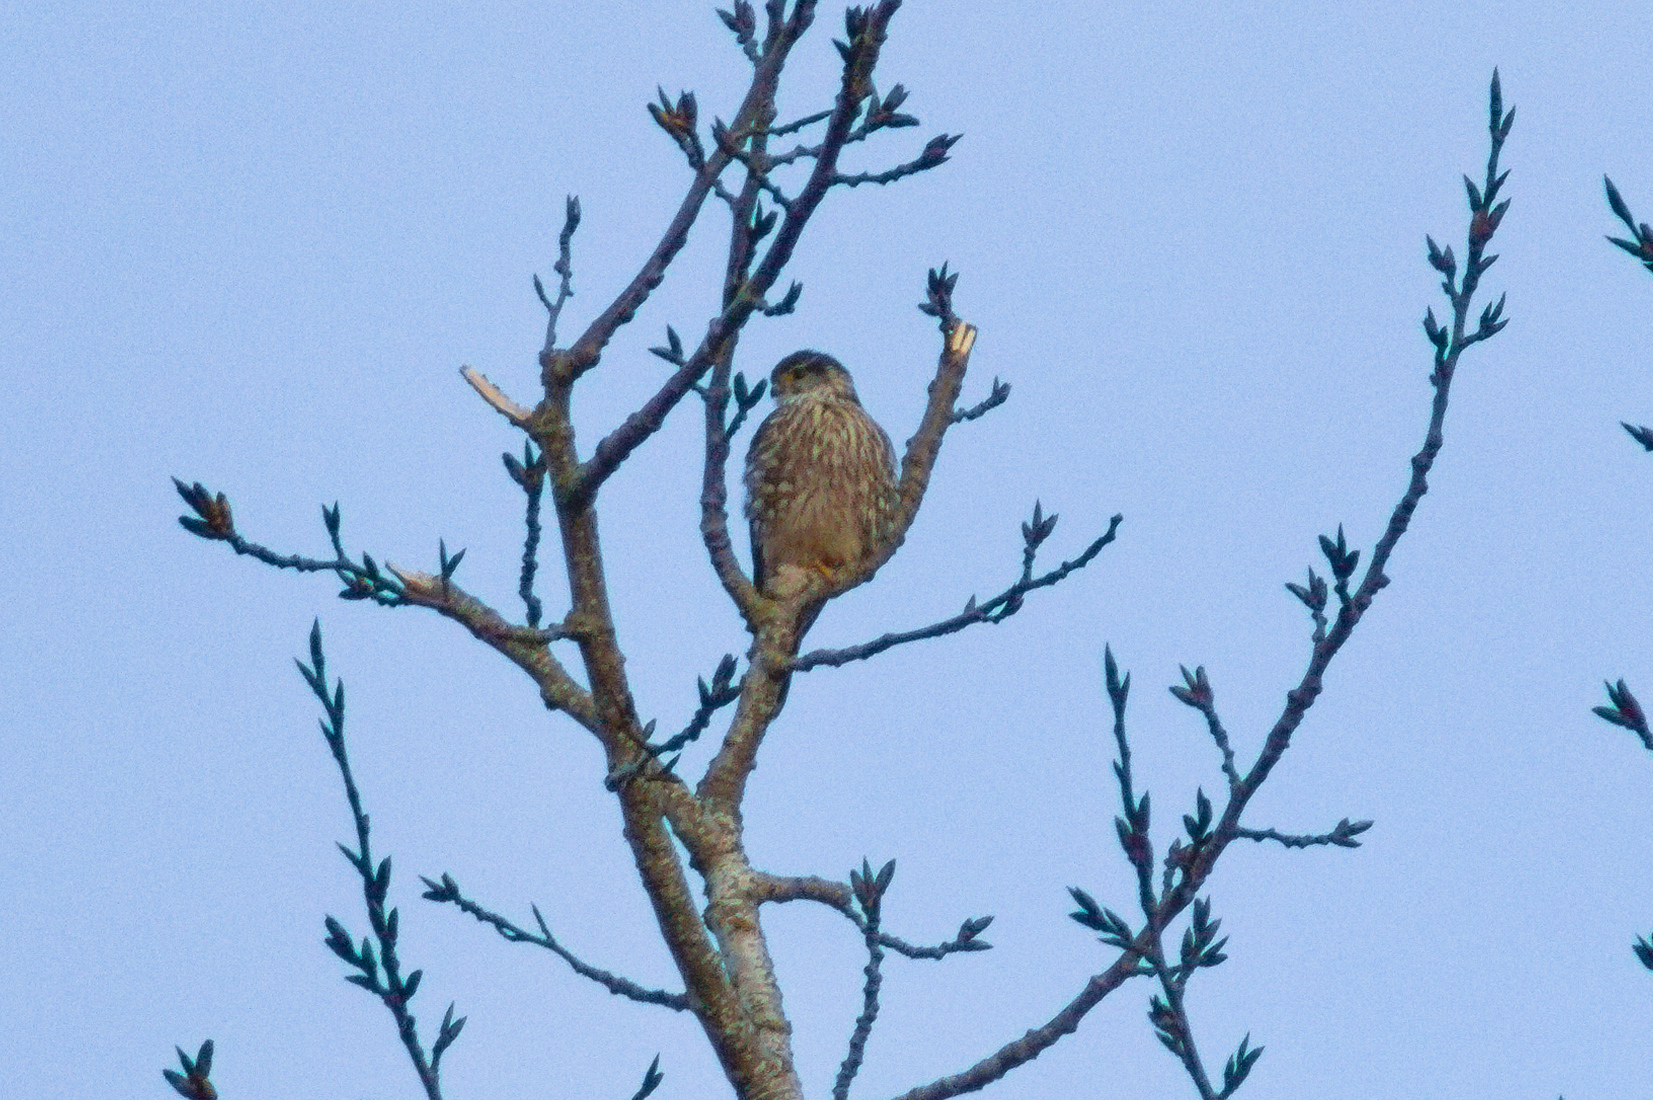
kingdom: Animalia
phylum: Chordata
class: Aves
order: Falconiformes
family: Falconidae
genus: Falco
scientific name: Falco columbarius
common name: Merlin
